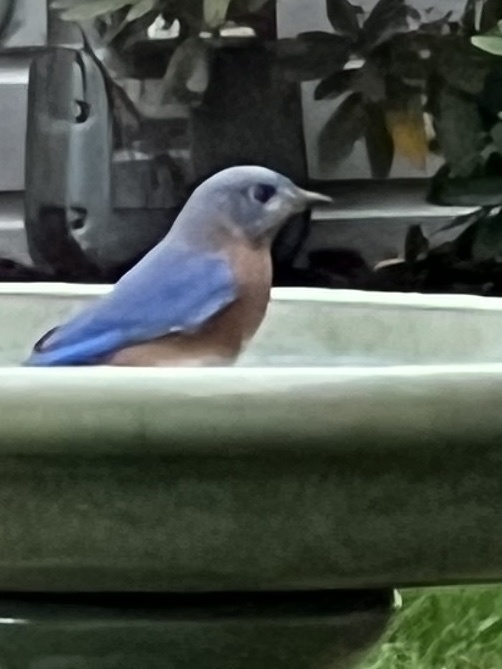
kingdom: Animalia
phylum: Chordata
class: Aves
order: Passeriformes
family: Turdidae
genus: Sialia
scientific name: Sialia sialis
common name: Eastern bluebird
